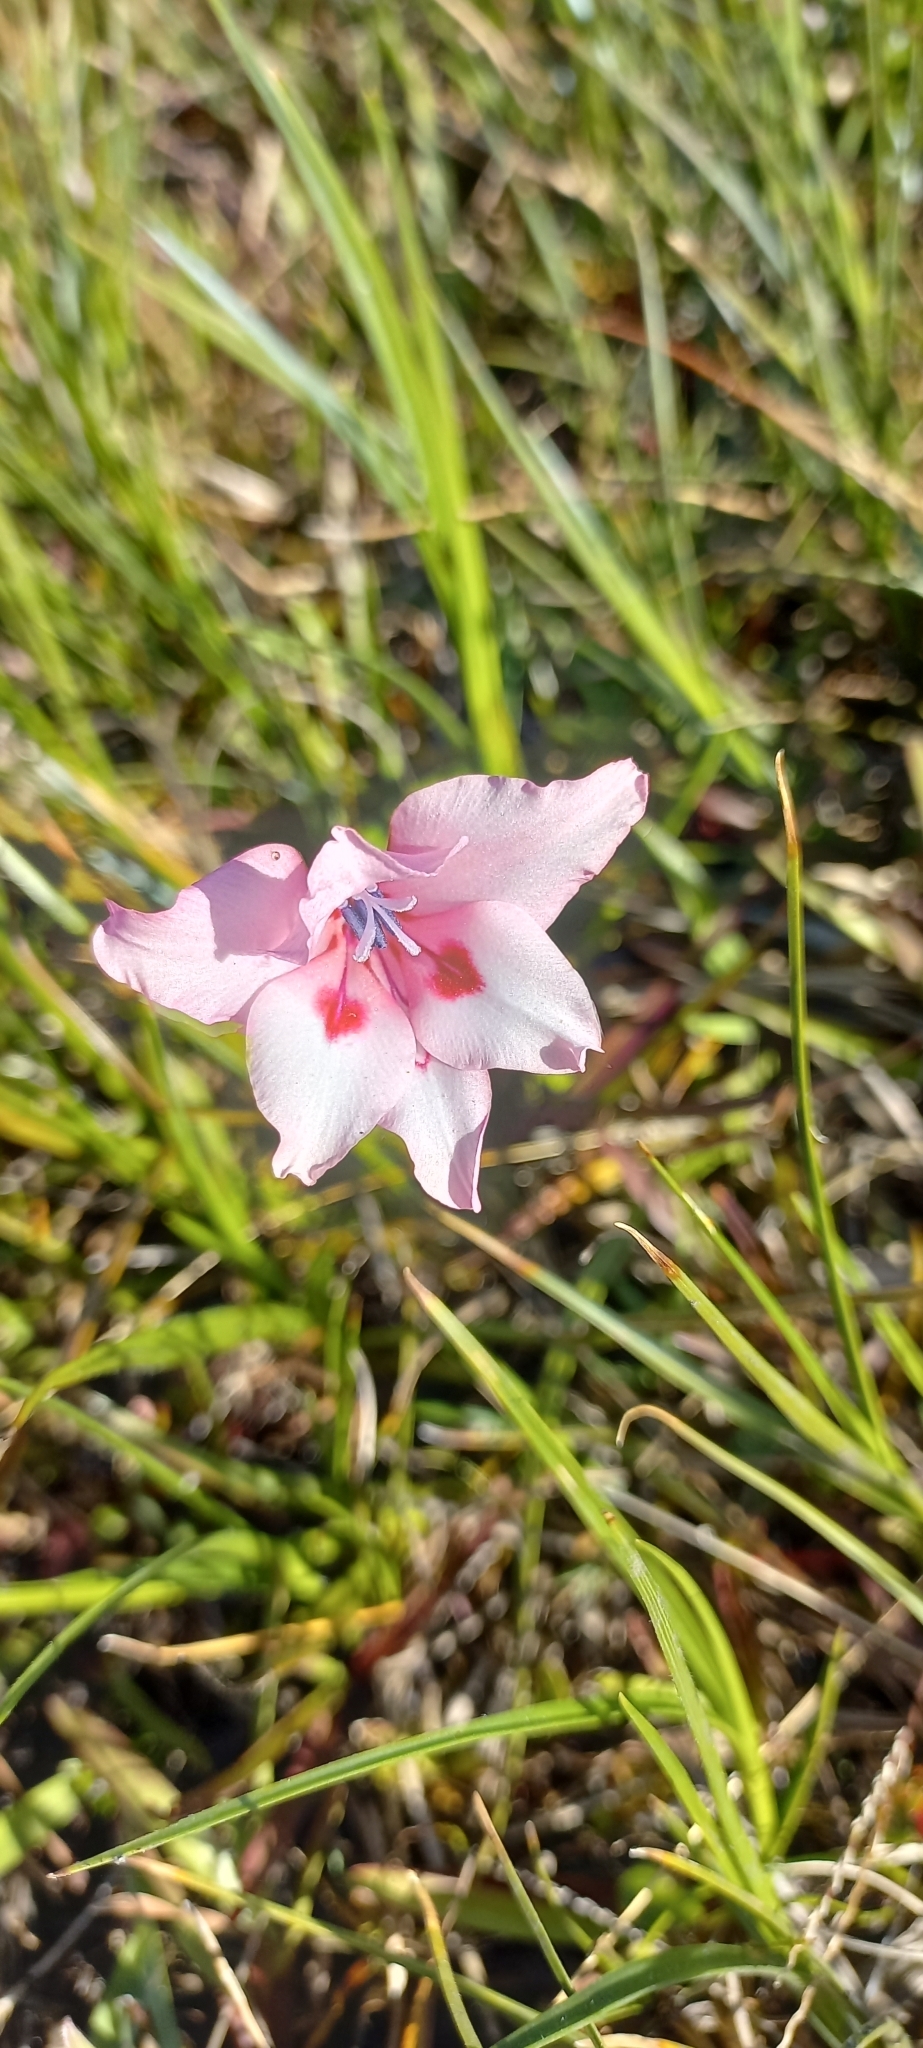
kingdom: Plantae
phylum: Tracheophyta
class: Liliopsida
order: Asparagales
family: Iridaceae
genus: Gladiolus
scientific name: Gladiolus carneus
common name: Painted-lady
